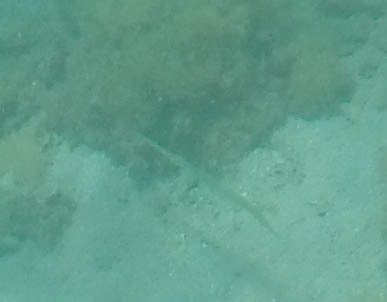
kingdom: Animalia
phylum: Chordata
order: Syngnathiformes
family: Fistulariidae
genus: Fistularia
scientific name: Fistularia commersonii
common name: Bluespotted cornetfish
